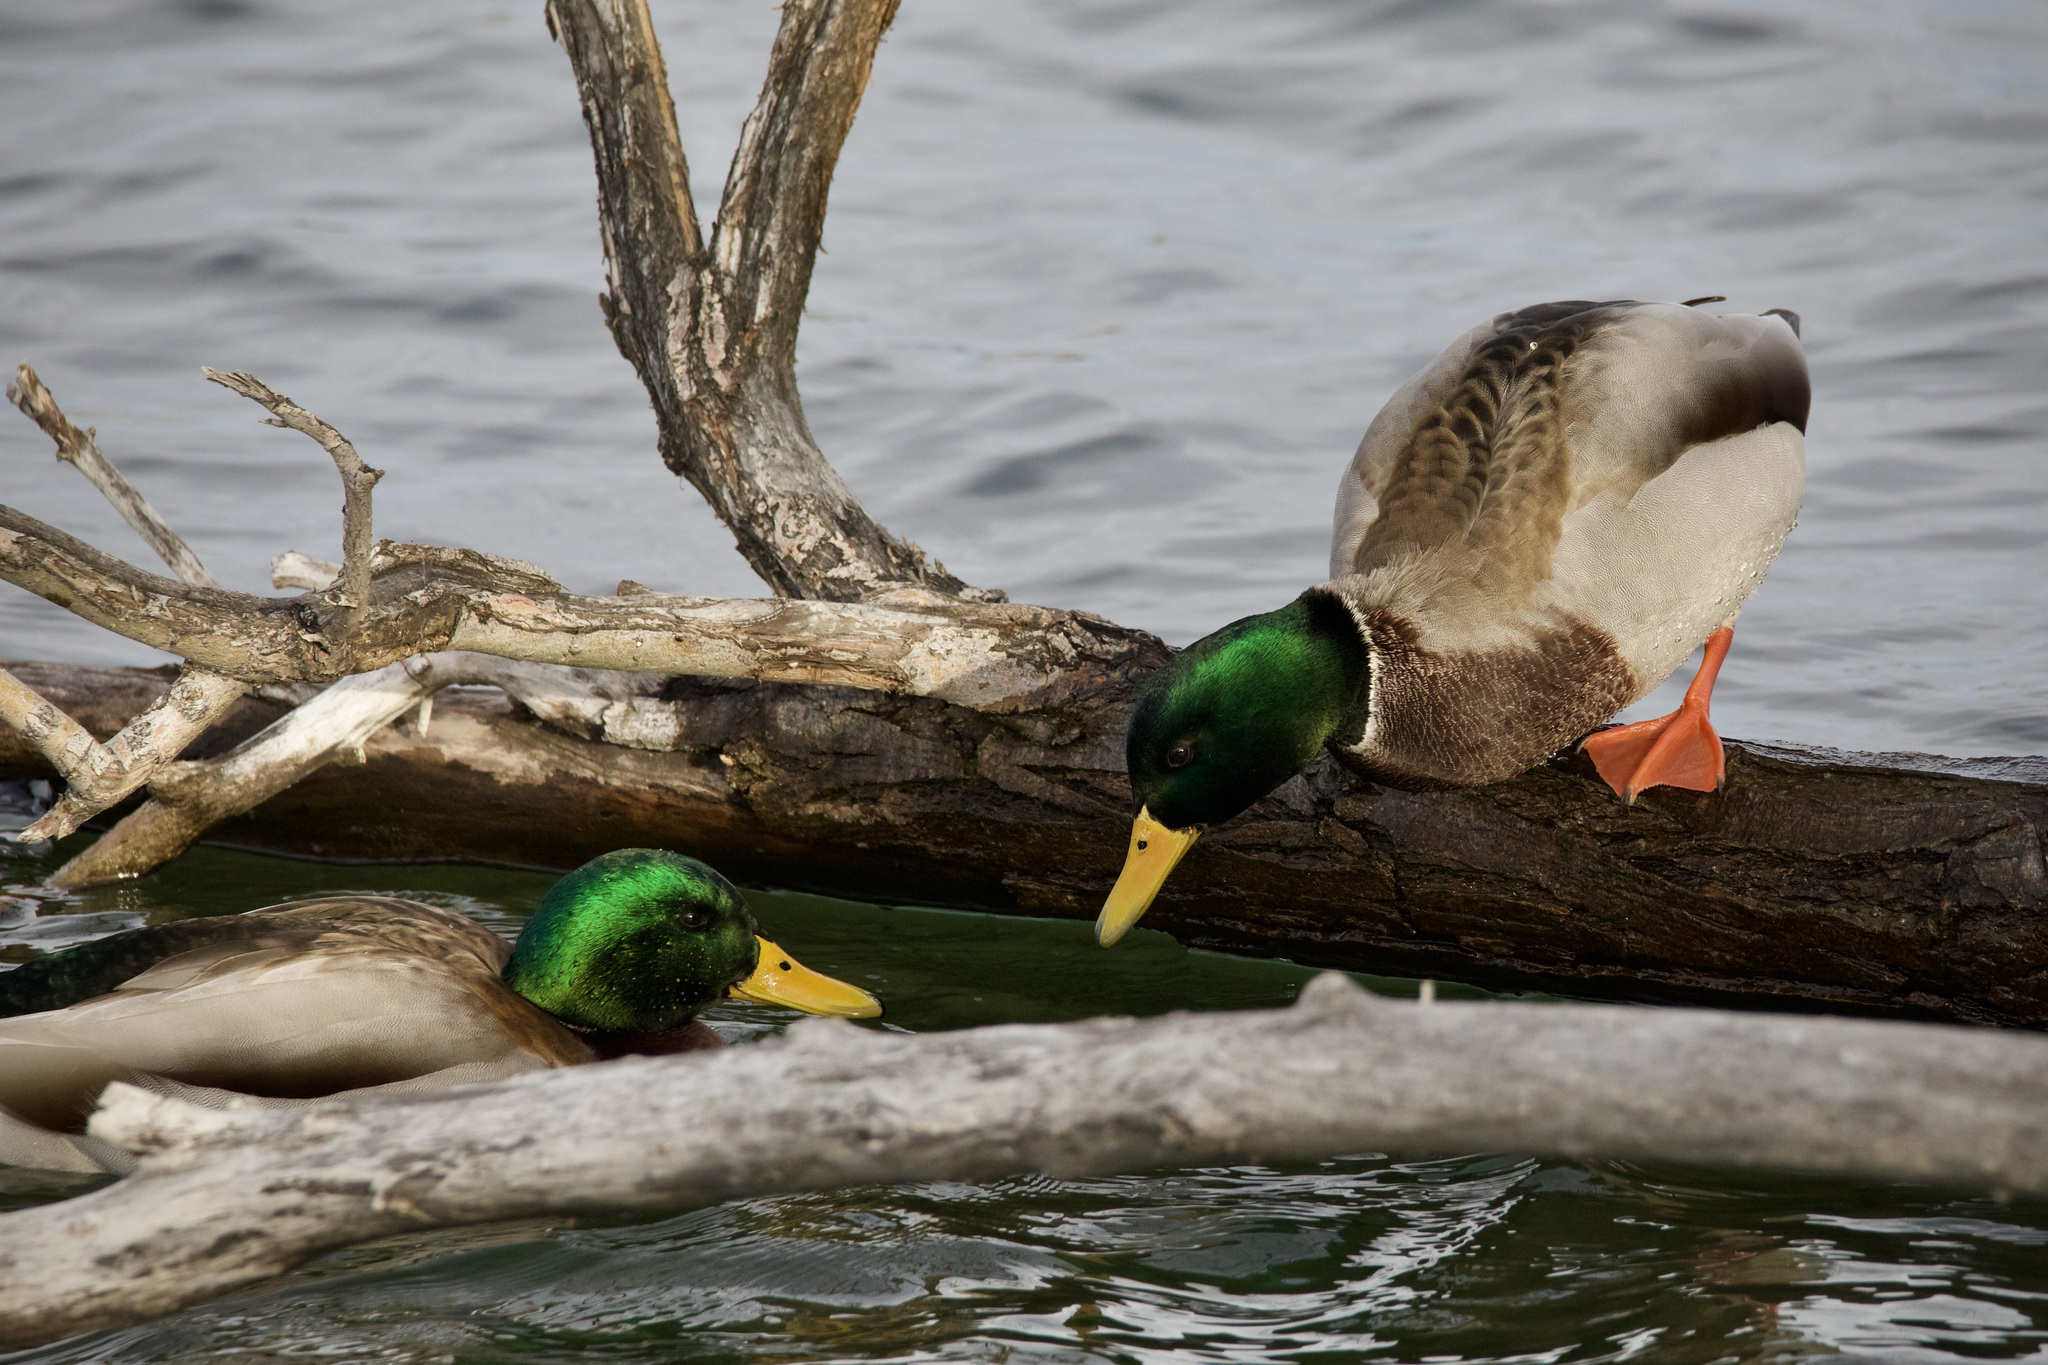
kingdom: Animalia
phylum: Chordata
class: Aves
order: Anseriformes
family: Anatidae
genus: Anas
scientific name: Anas platyrhynchos
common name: Mallard
